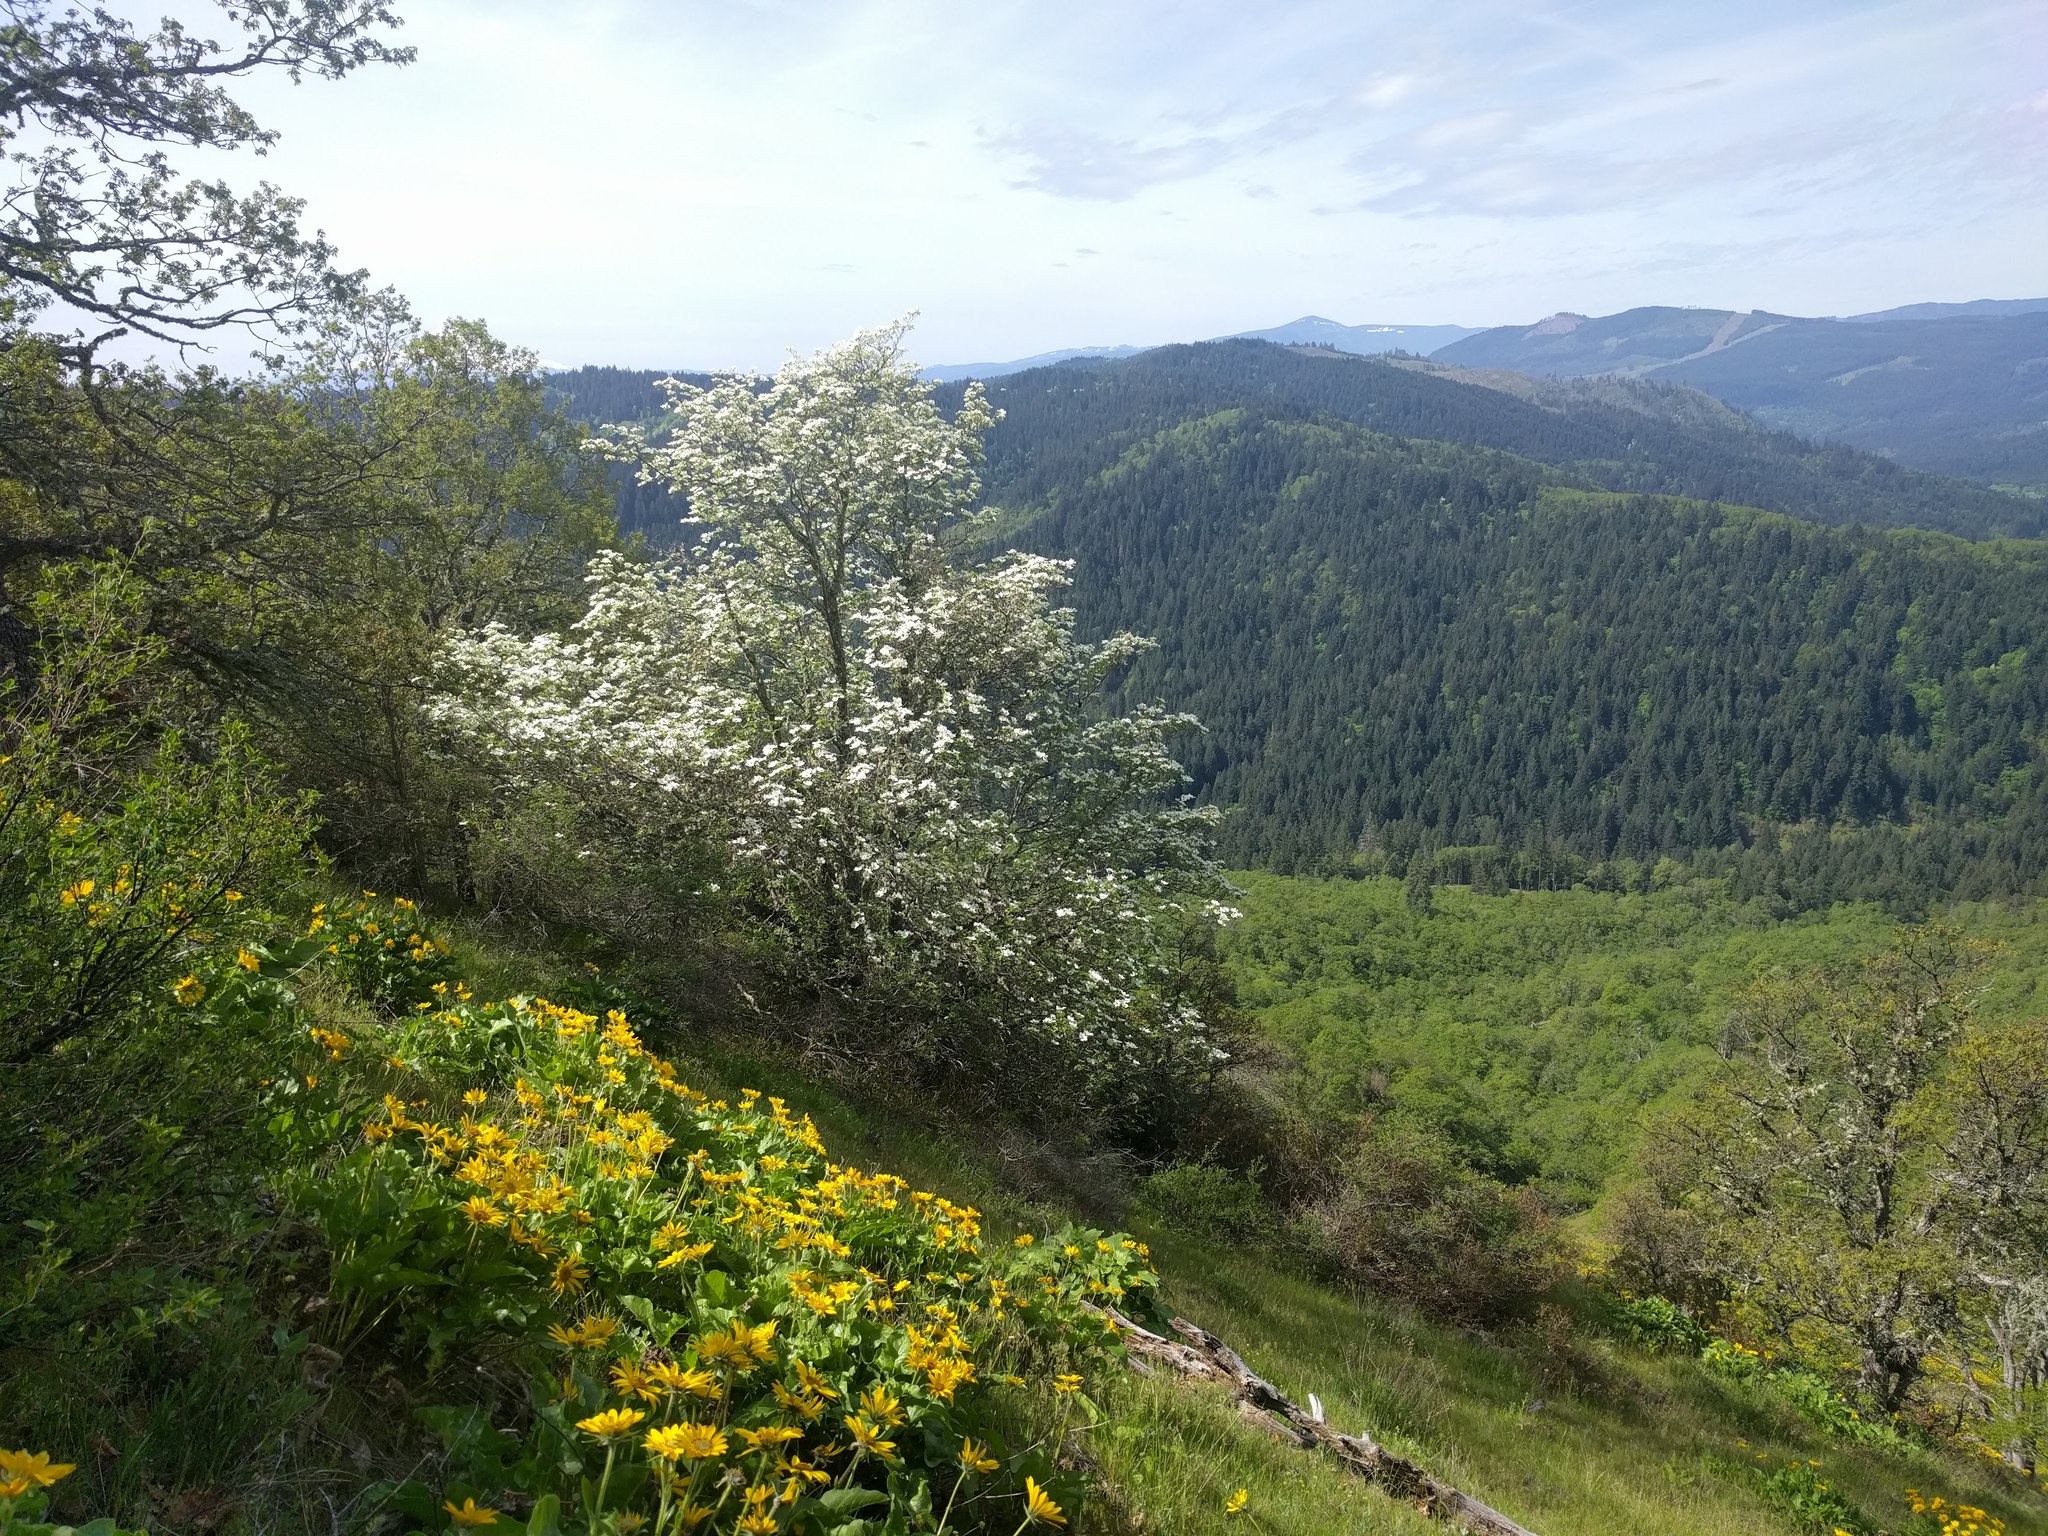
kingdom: Plantae
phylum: Tracheophyta
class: Magnoliopsida
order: Cornales
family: Cornaceae
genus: Cornus
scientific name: Cornus nuttallii
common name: Pacific dogwood
